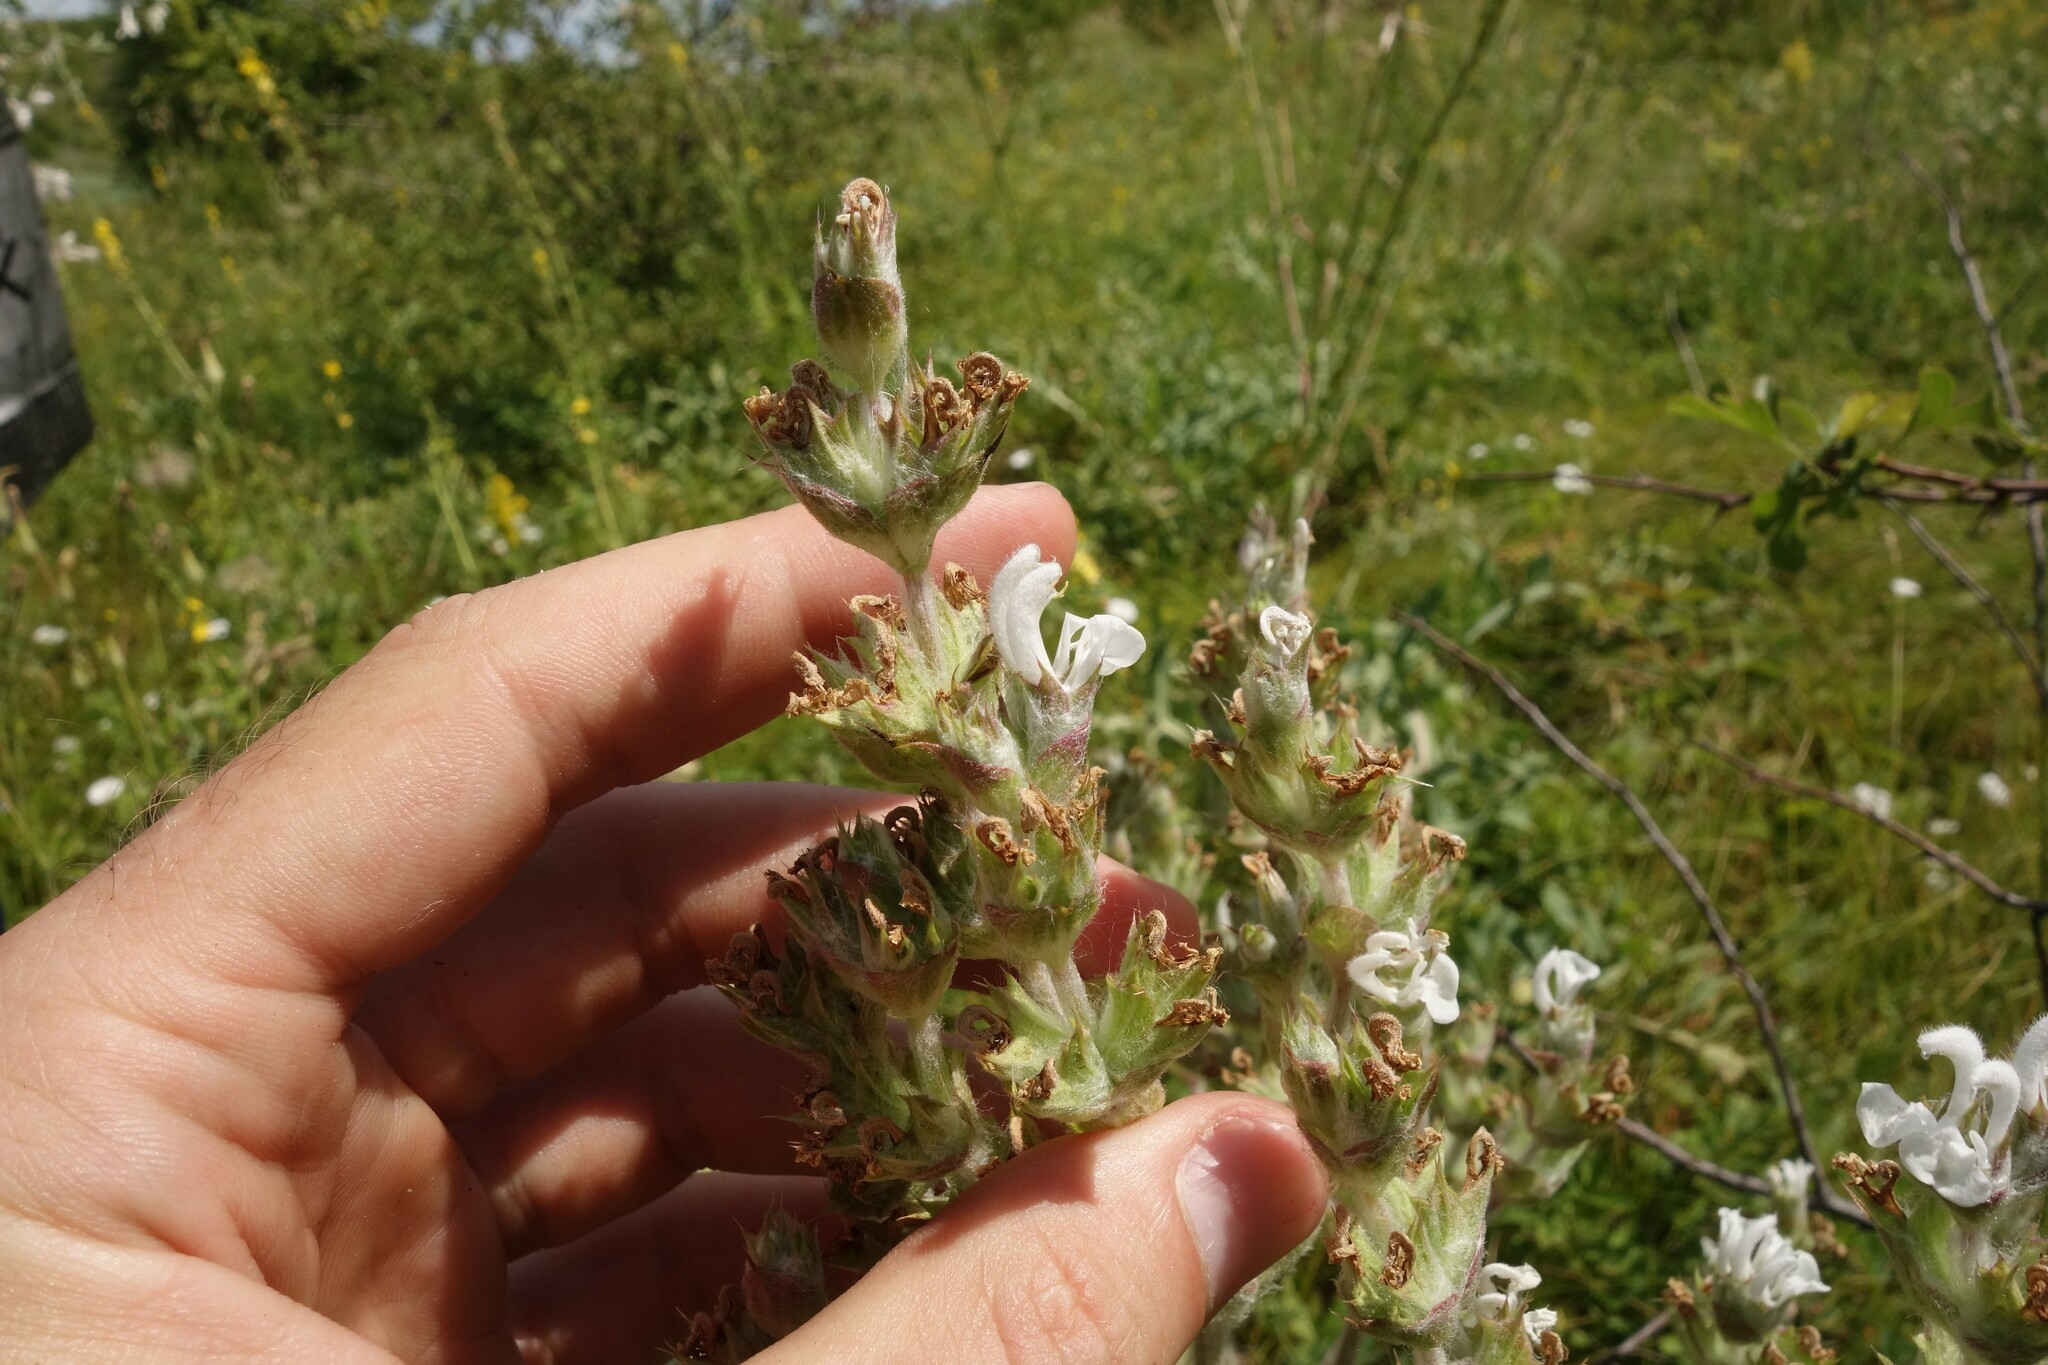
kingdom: Plantae
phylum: Tracheophyta
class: Magnoliopsida
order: Lamiales
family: Lamiaceae
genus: Salvia
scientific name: Salvia aethiopis
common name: Mediterranean sage
